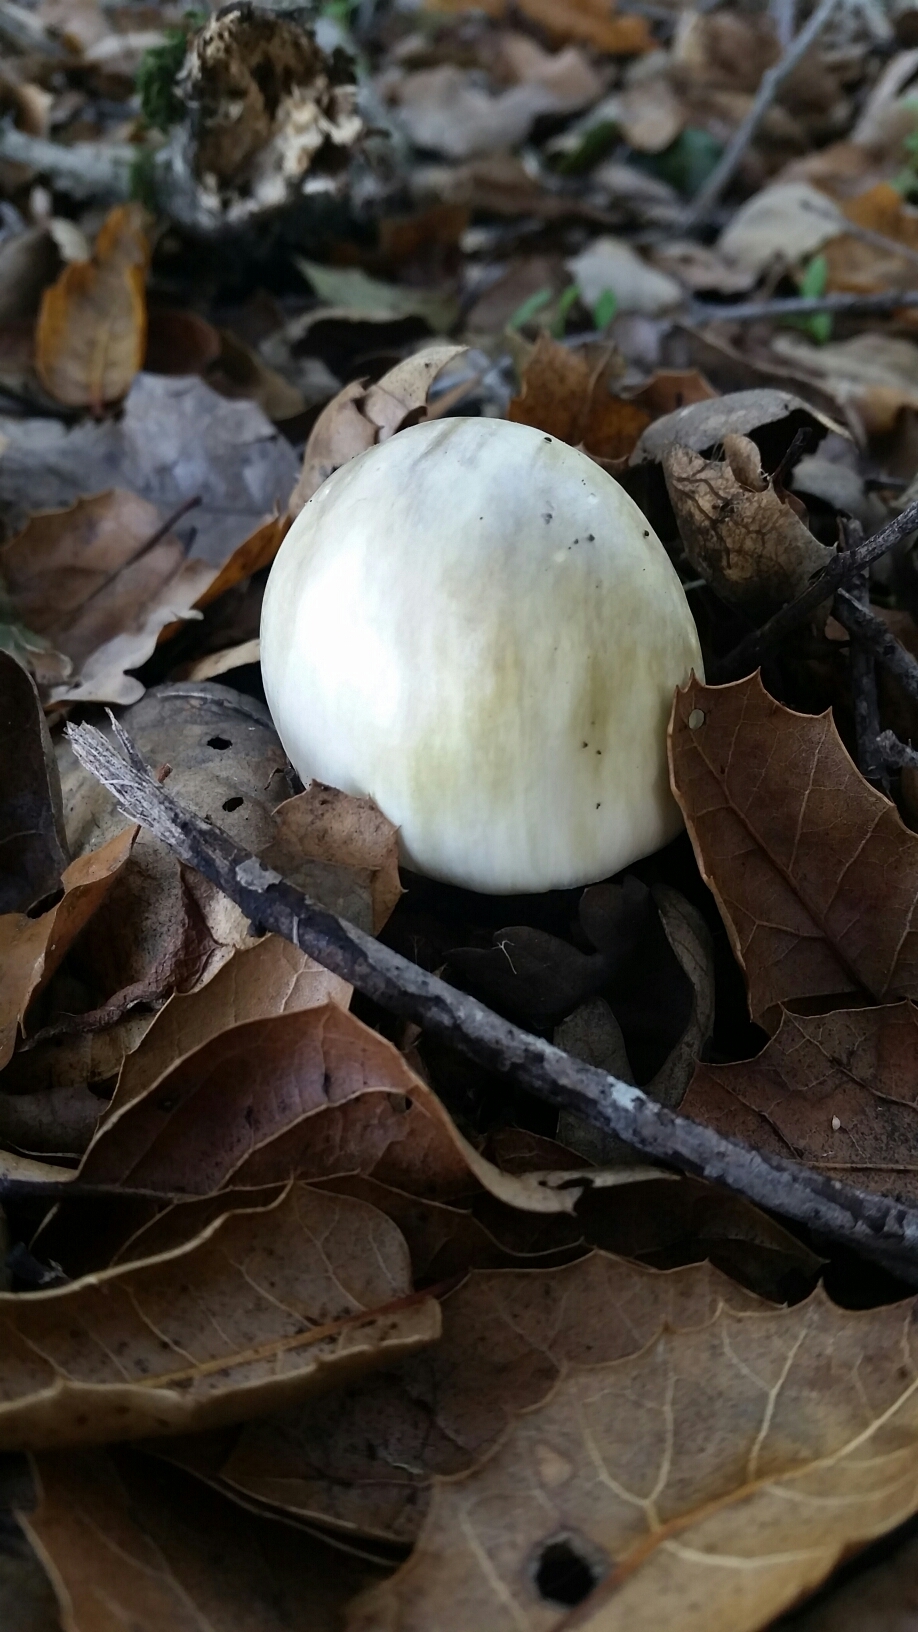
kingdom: Fungi
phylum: Basidiomycota
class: Agaricomycetes
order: Agaricales
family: Amanitaceae
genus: Amanita
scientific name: Amanita phalloides
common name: Death cap
